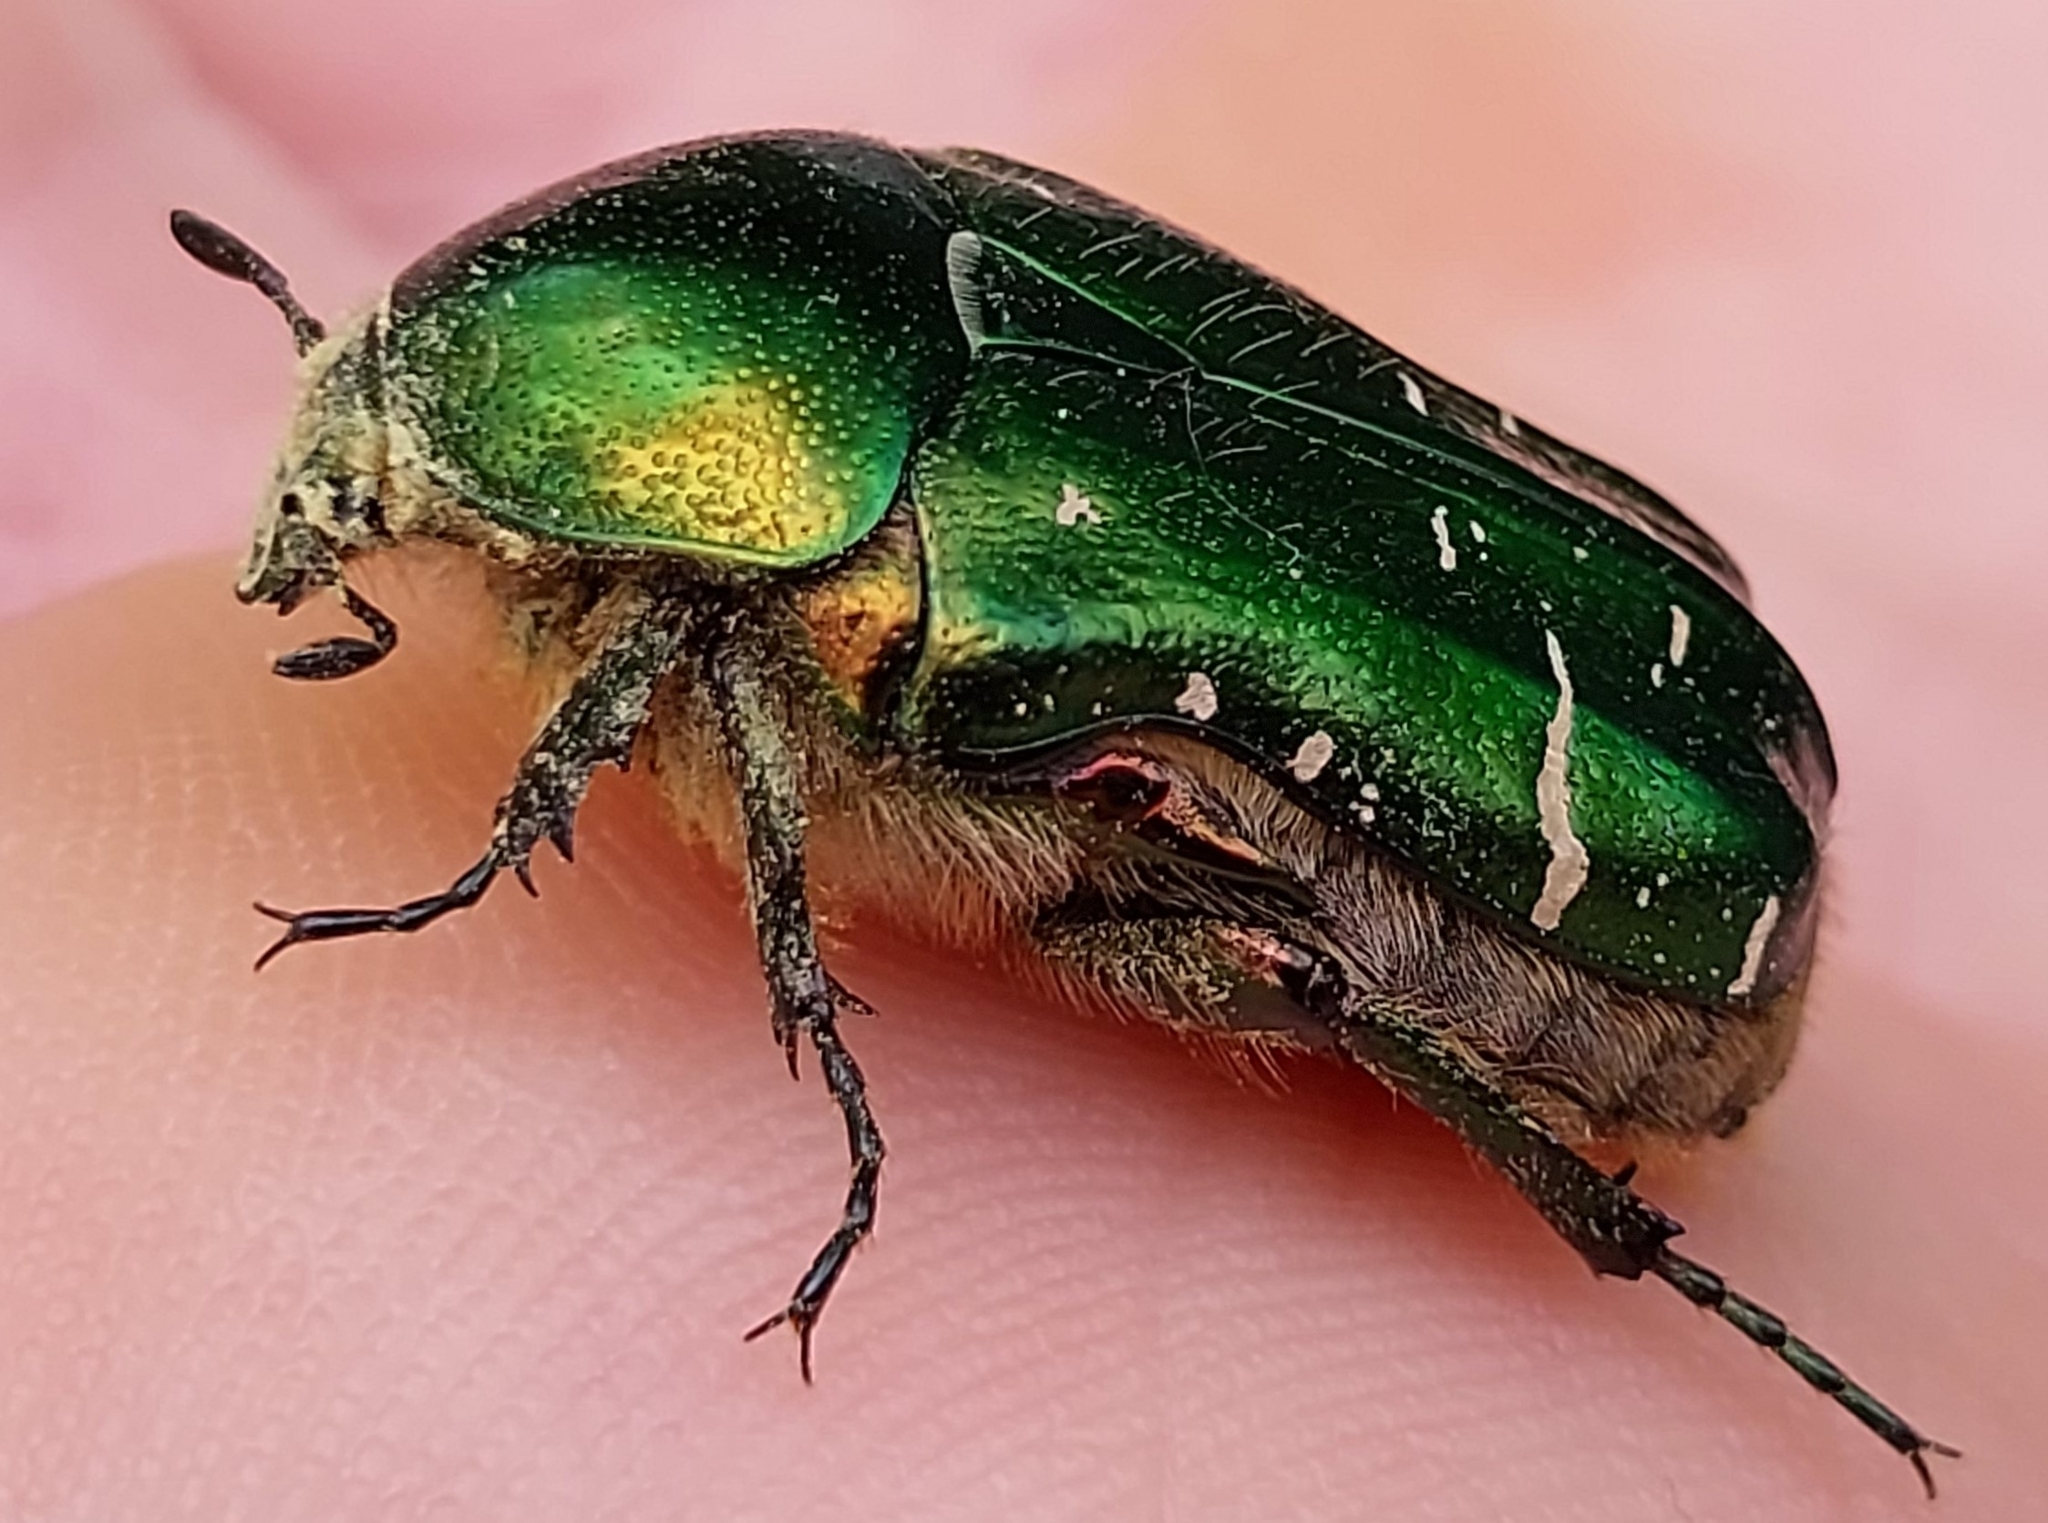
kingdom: Animalia
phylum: Arthropoda
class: Insecta
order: Coleoptera
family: Scarabaeidae
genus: Cetonia
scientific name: Cetonia aurata
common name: Rose chafer
